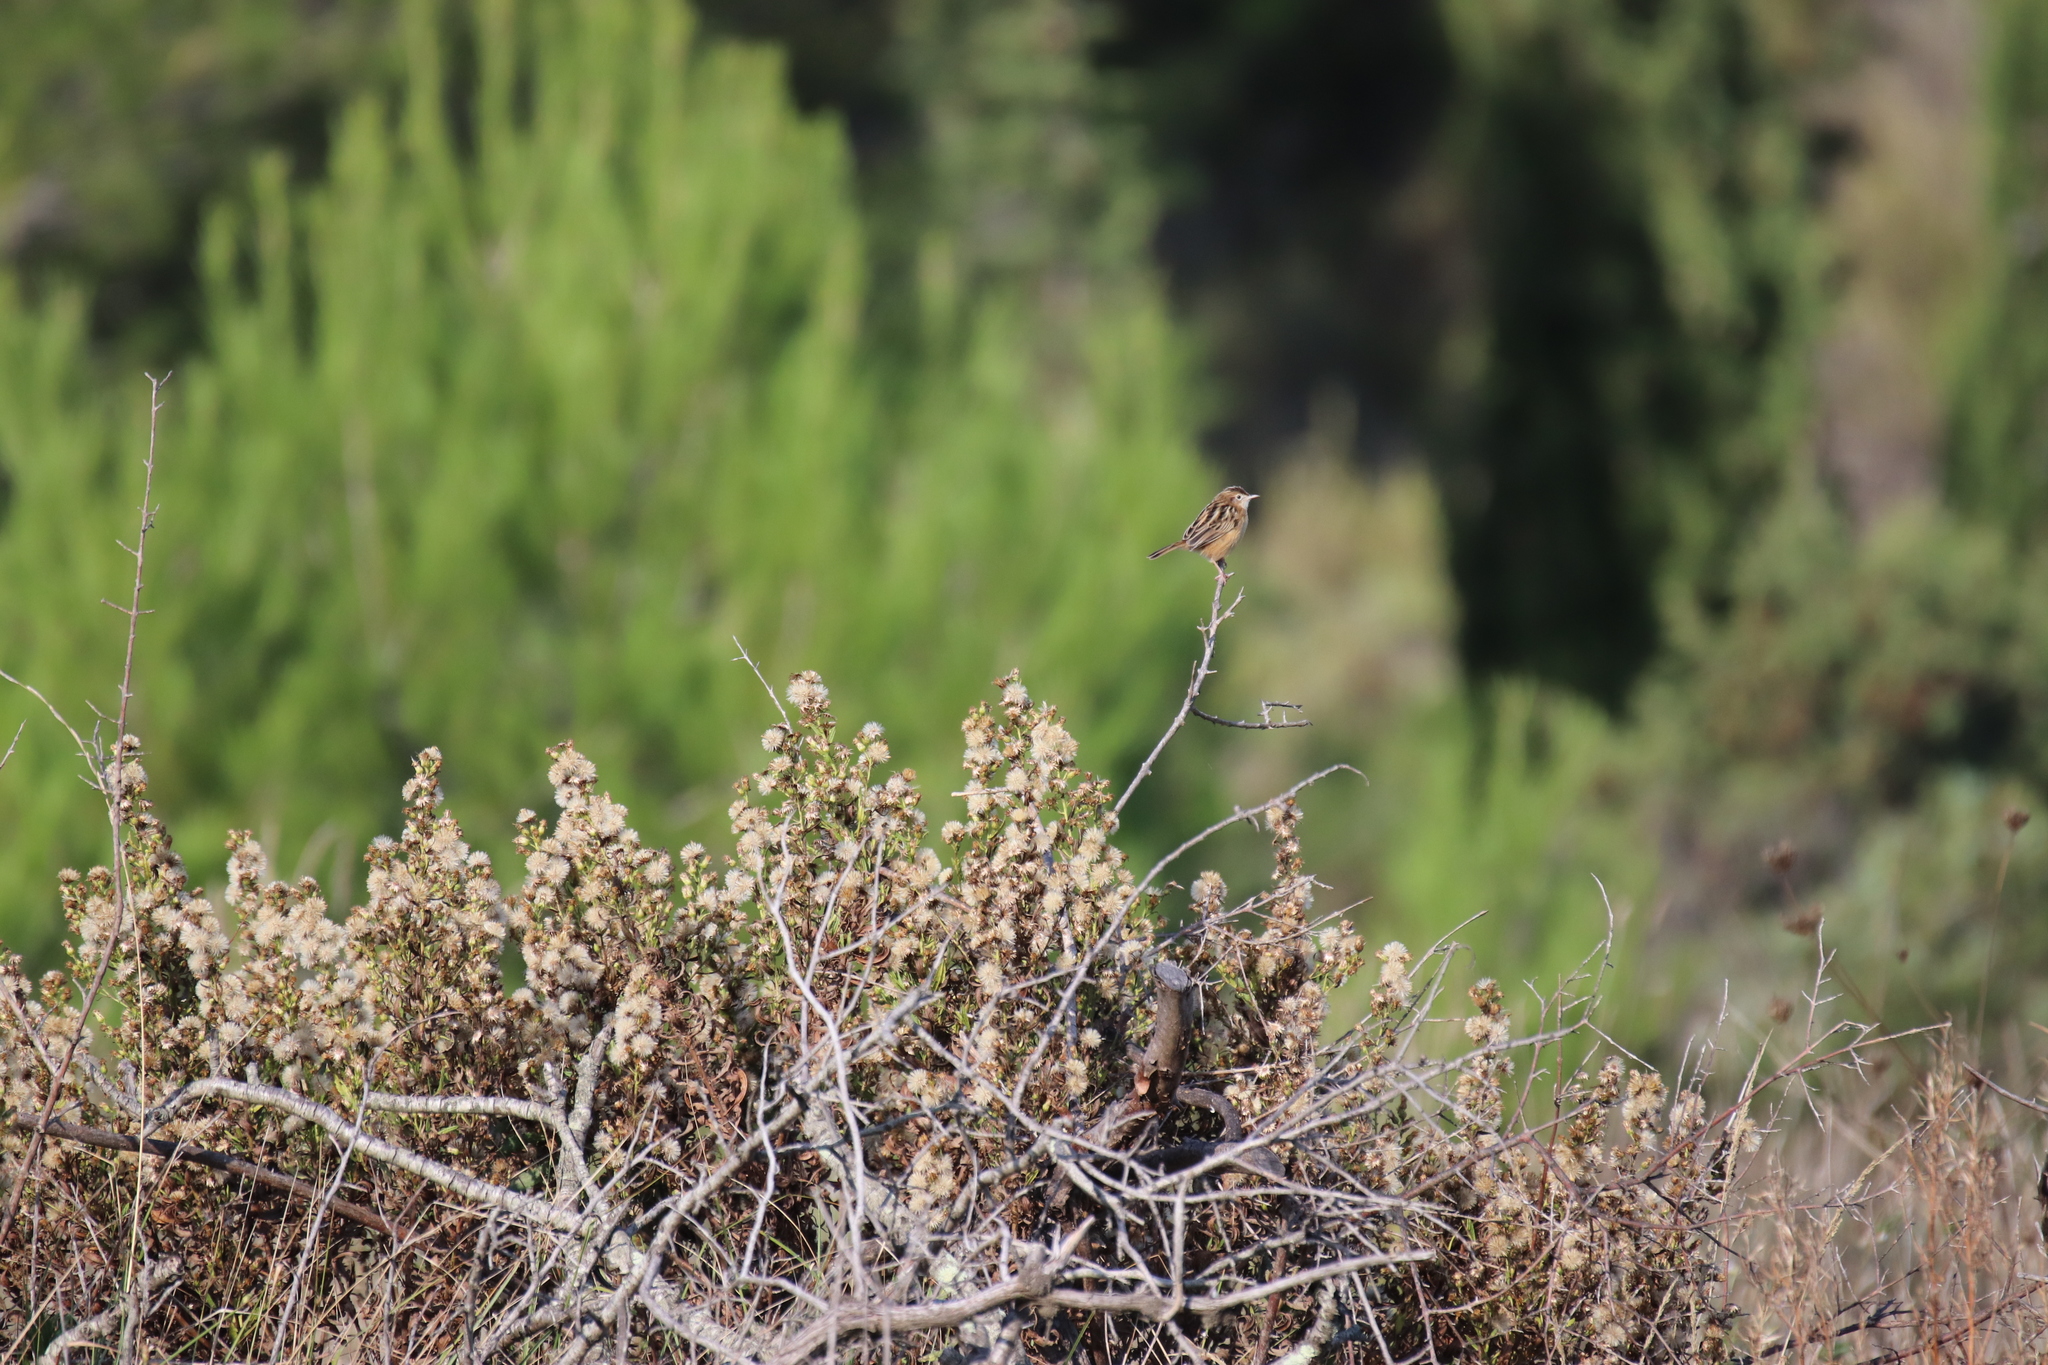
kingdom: Animalia
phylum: Chordata
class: Aves
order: Passeriformes
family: Cisticolidae
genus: Cisticola
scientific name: Cisticola juncidis
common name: Zitting cisticola
